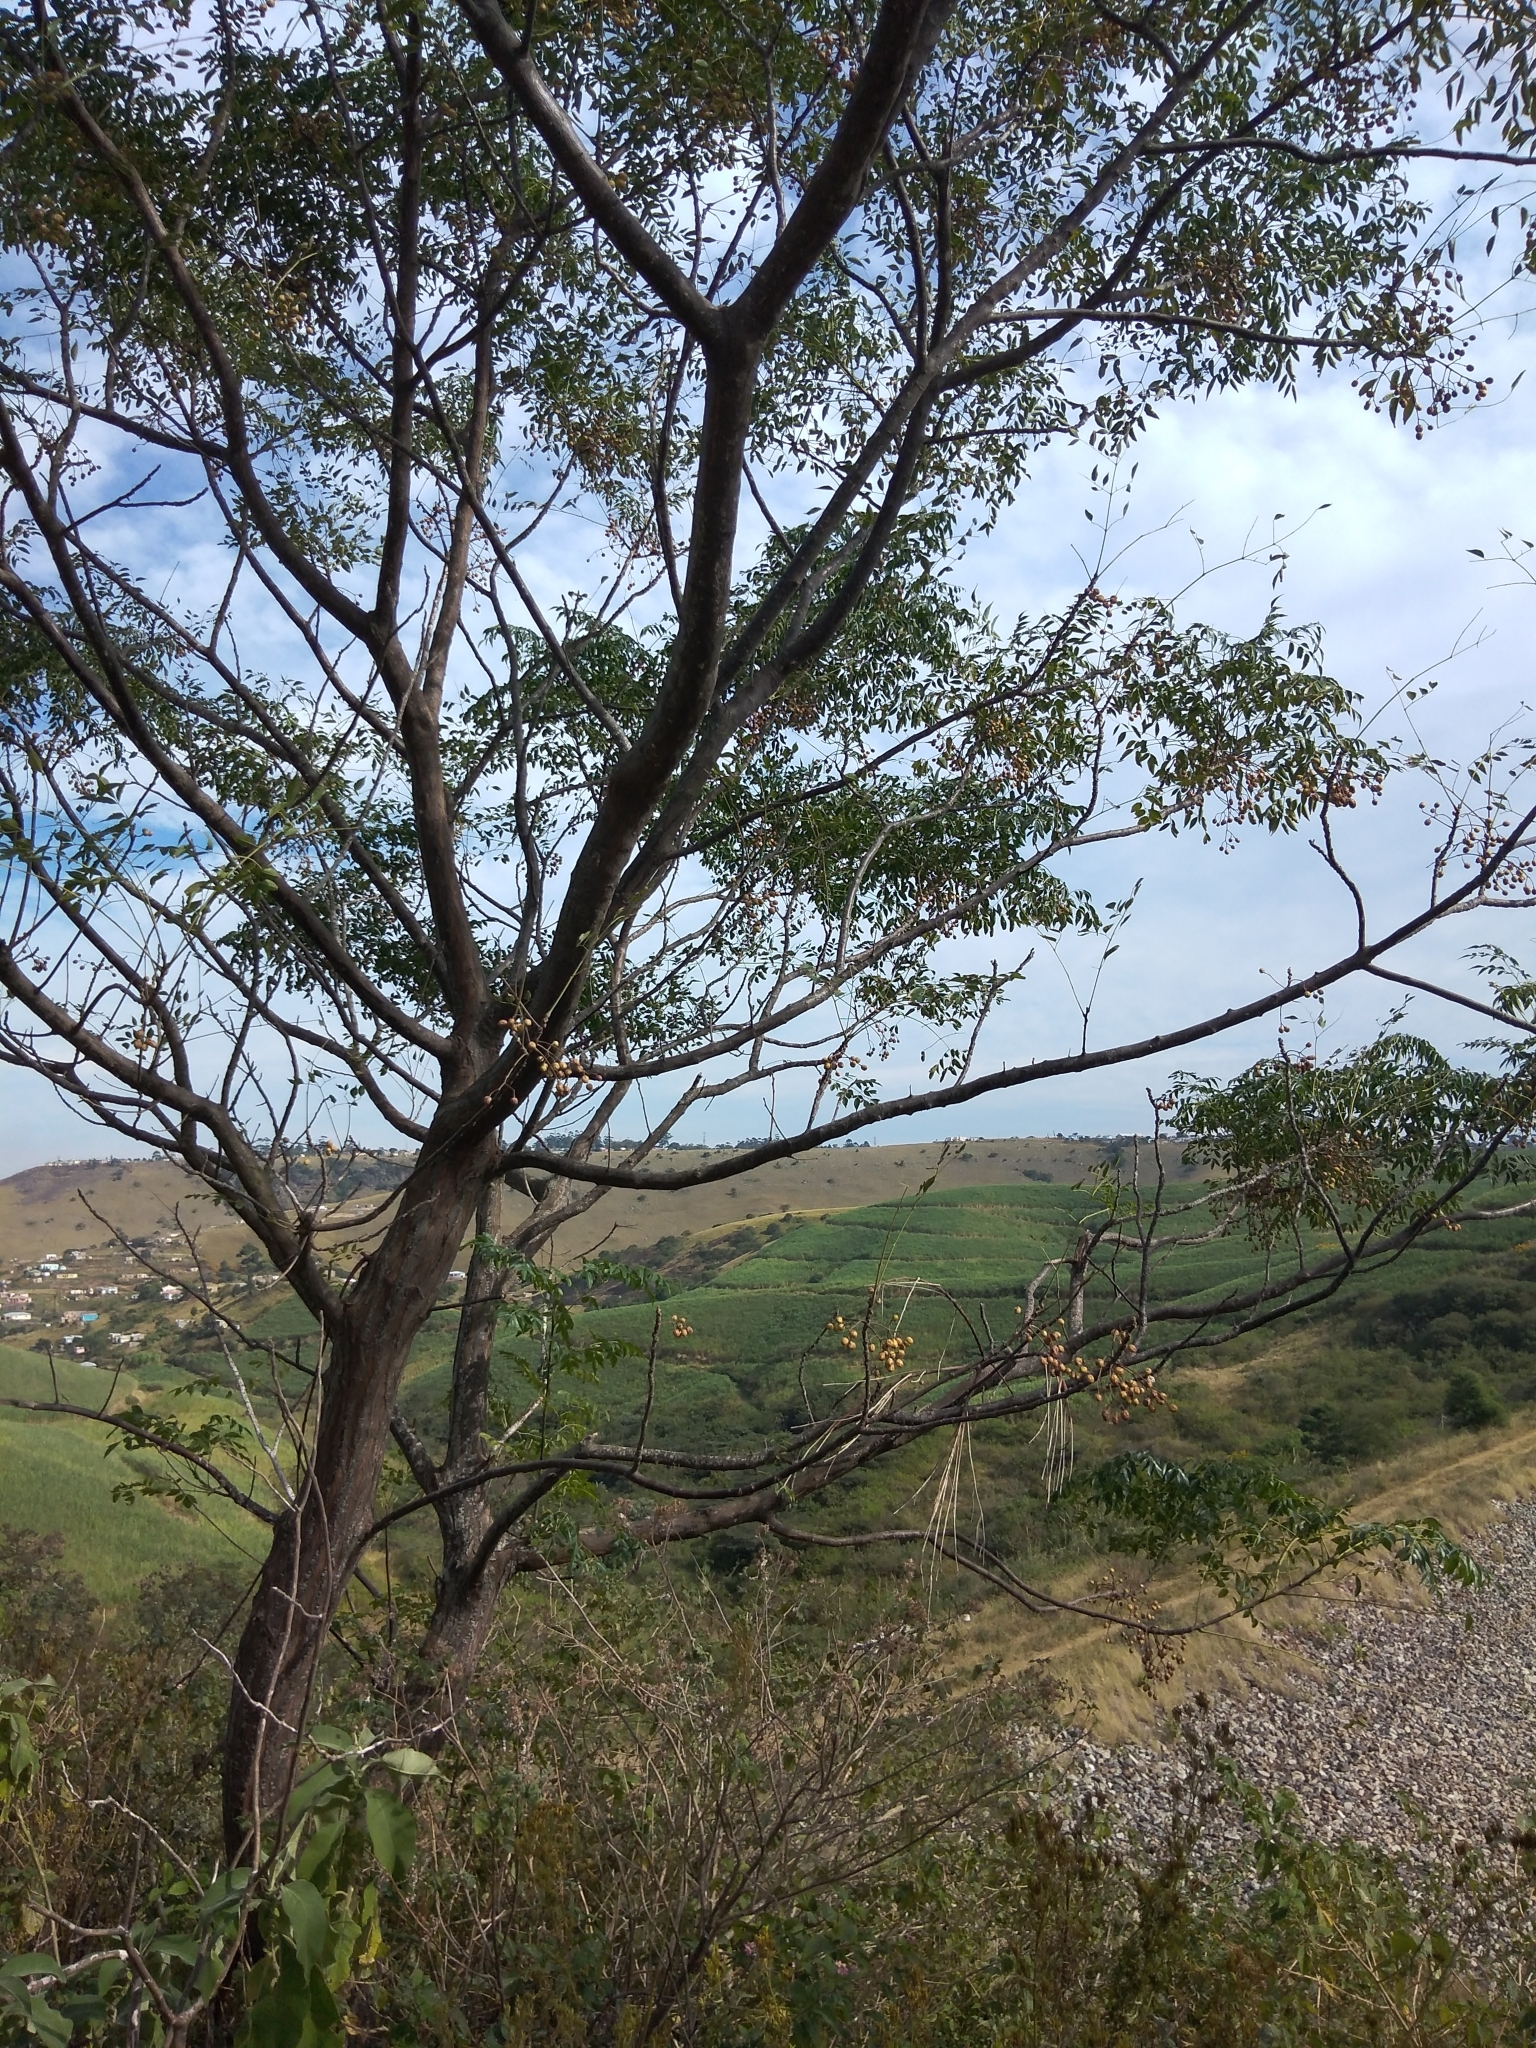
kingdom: Plantae
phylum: Tracheophyta
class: Magnoliopsida
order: Sapindales
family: Meliaceae
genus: Melia
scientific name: Melia azedarach
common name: Chinaberrytree
